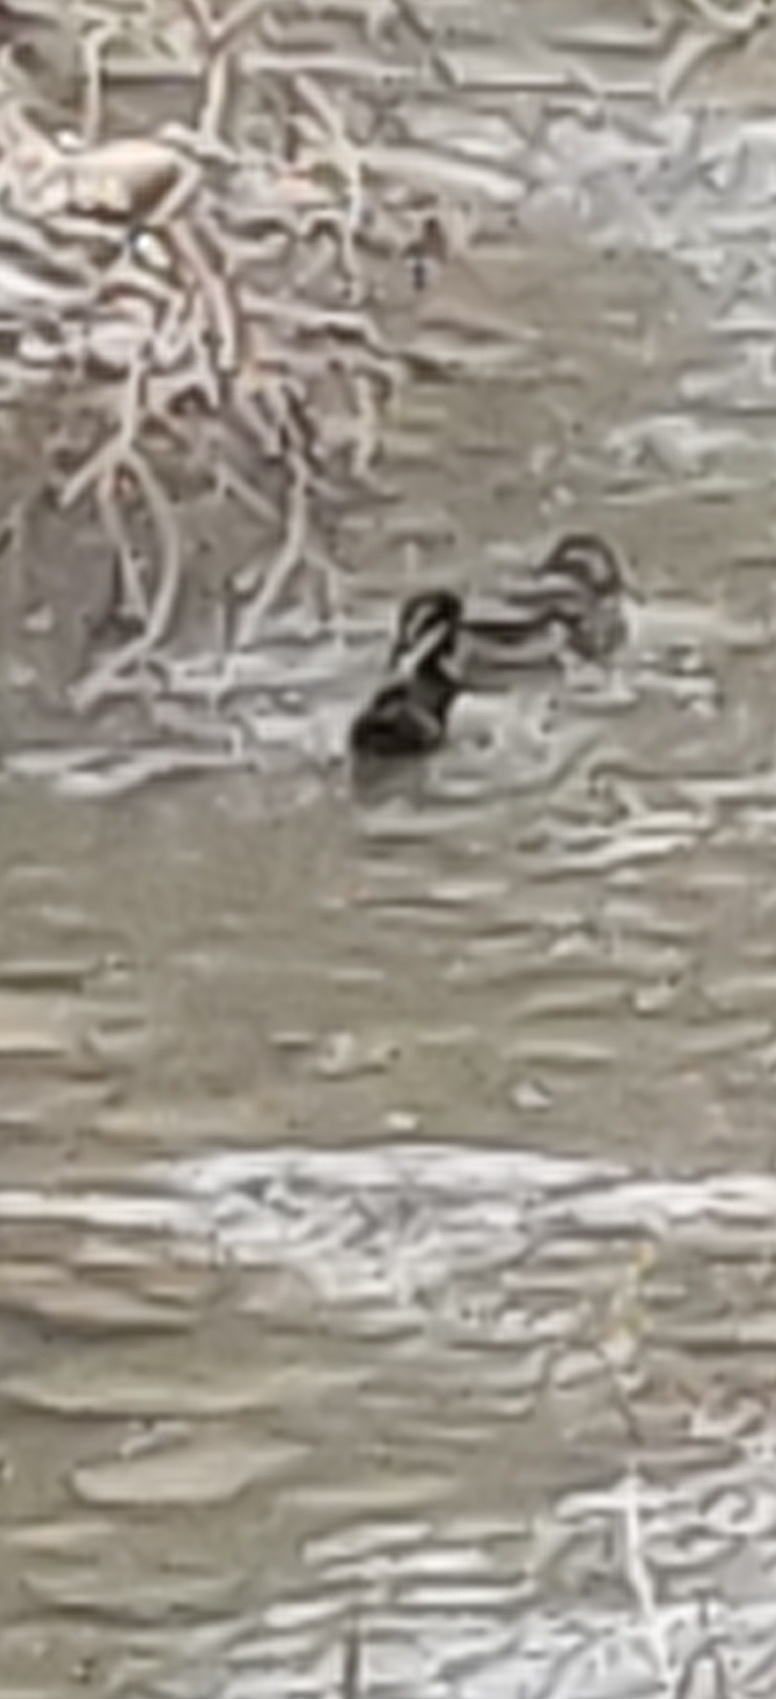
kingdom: Animalia
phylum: Chordata
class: Aves
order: Anseriformes
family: Anatidae
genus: Aix
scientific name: Aix sponsa
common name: Wood duck
